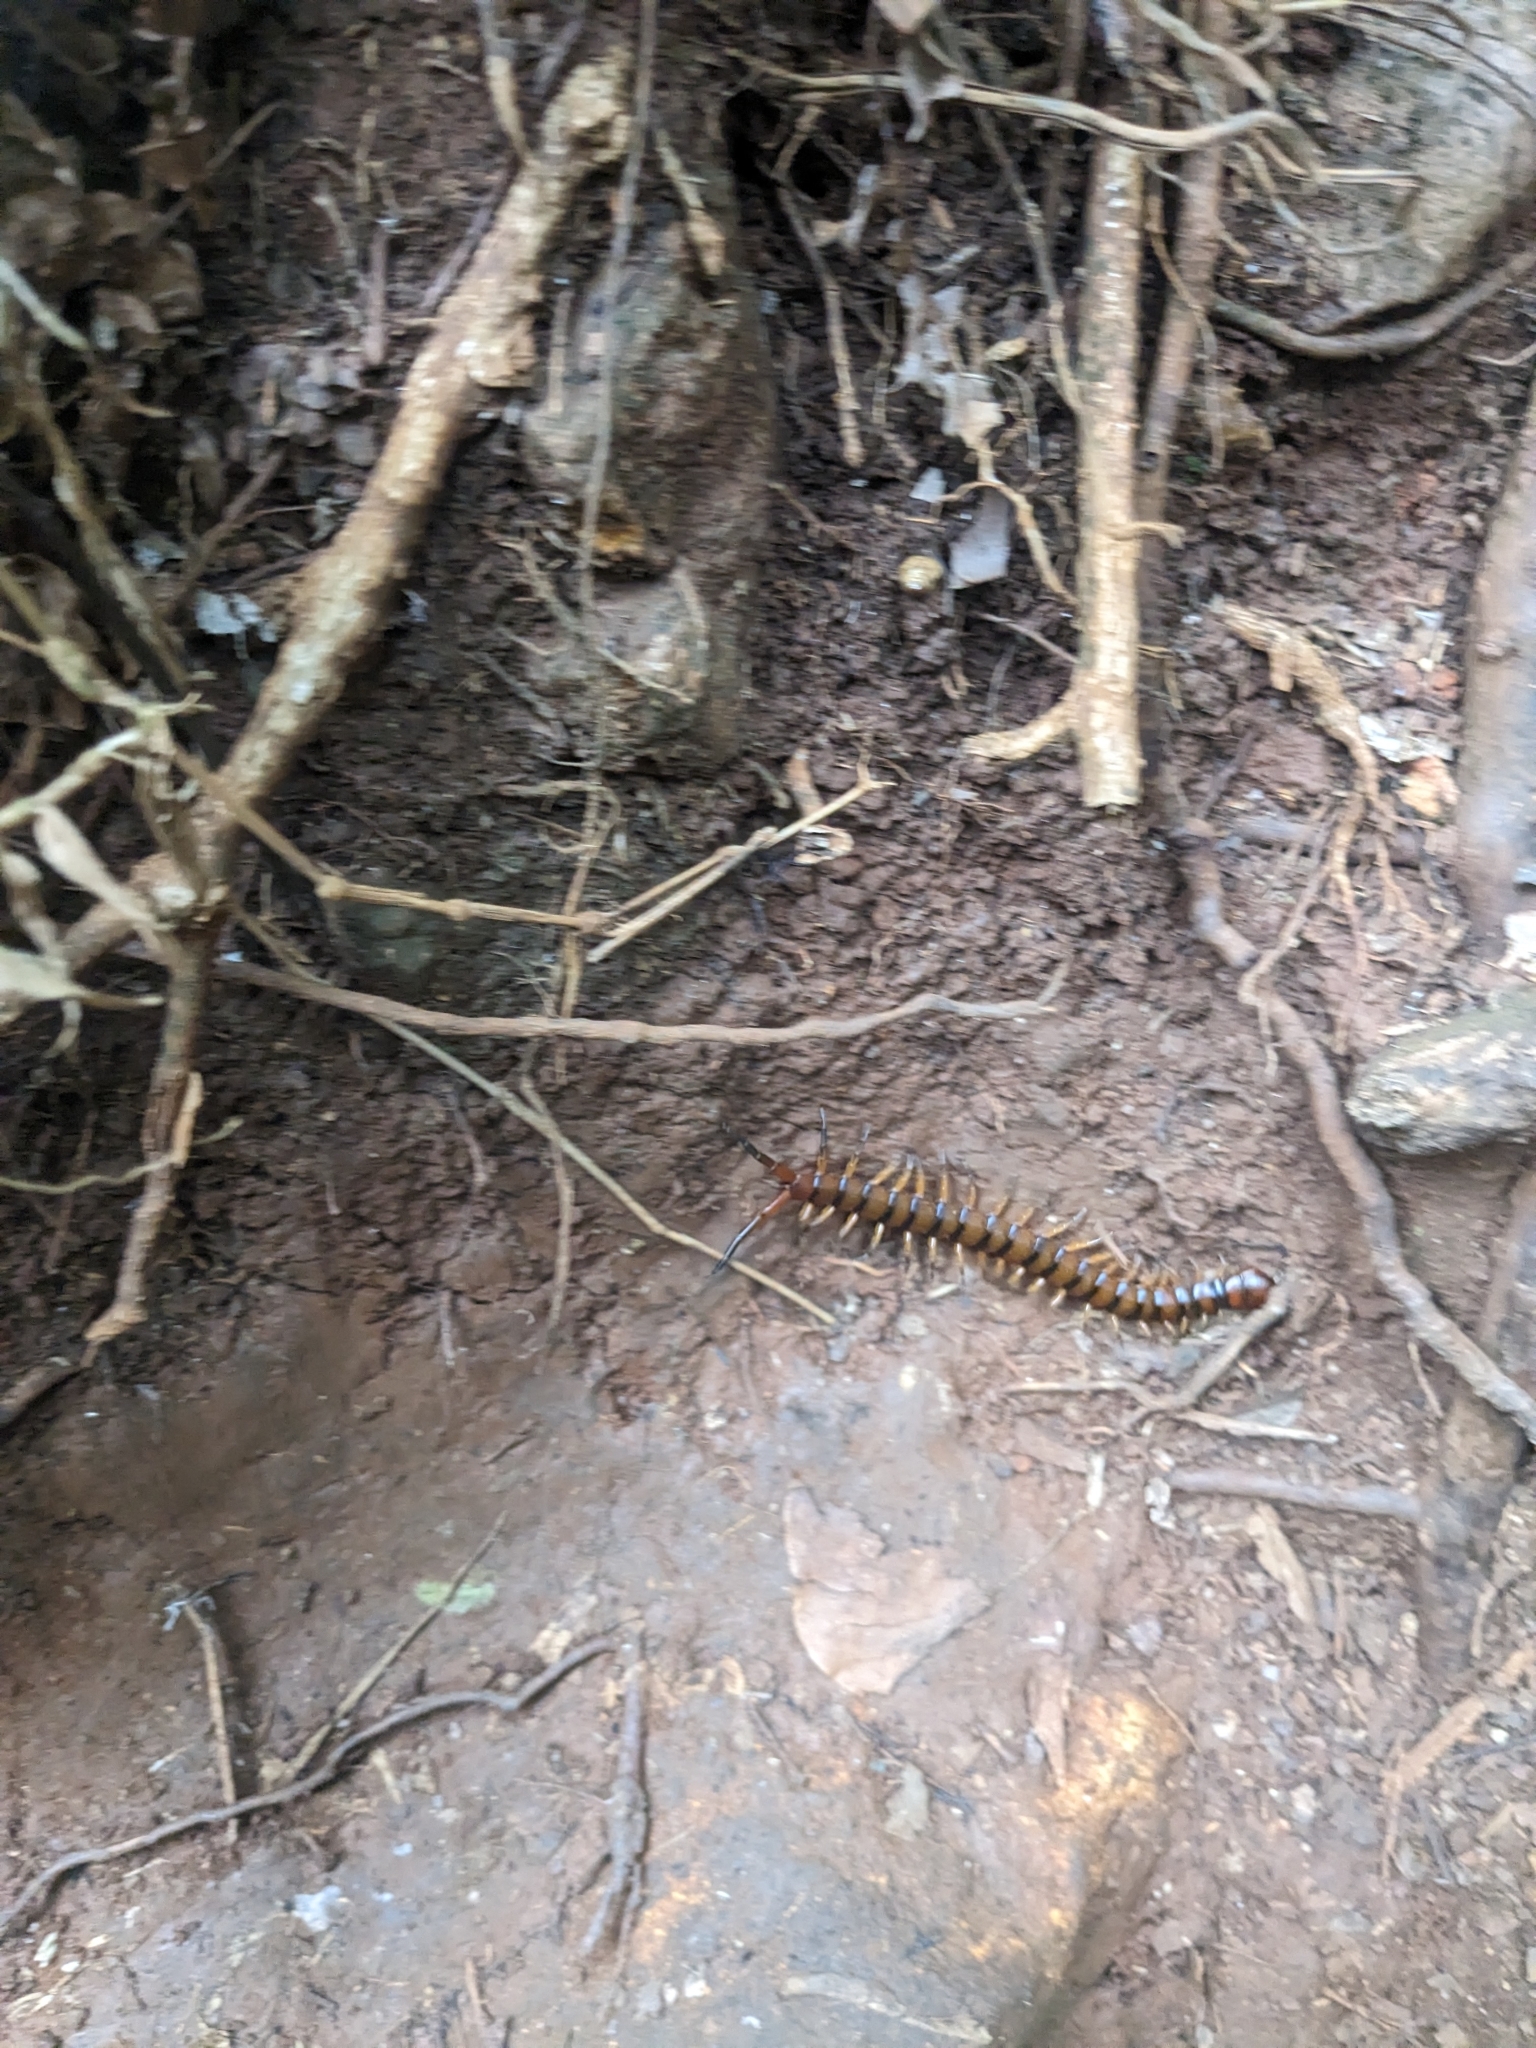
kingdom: Animalia
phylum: Arthropoda
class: Chilopoda
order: Scolopendromorpha
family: Scolopendridae
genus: Scolopendra
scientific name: Scolopendra alternans
